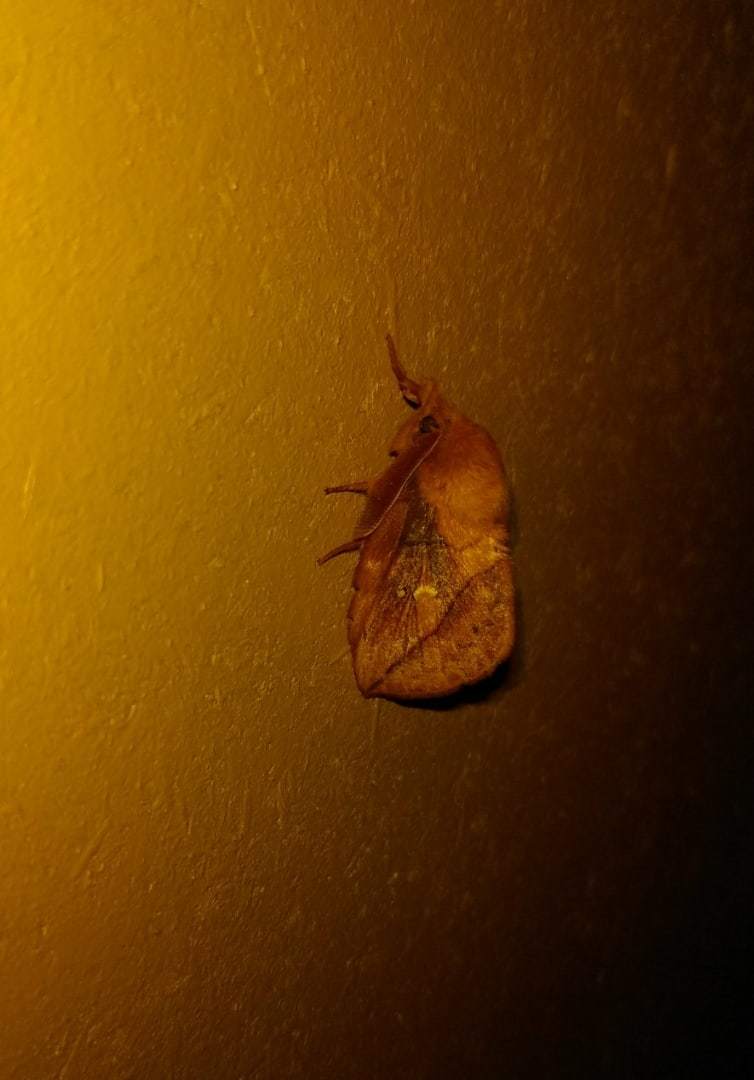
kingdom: Animalia
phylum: Arthropoda
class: Insecta
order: Lepidoptera
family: Lasiocampidae
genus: Euthrix
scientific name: Euthrix potatoria
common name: Drinker
